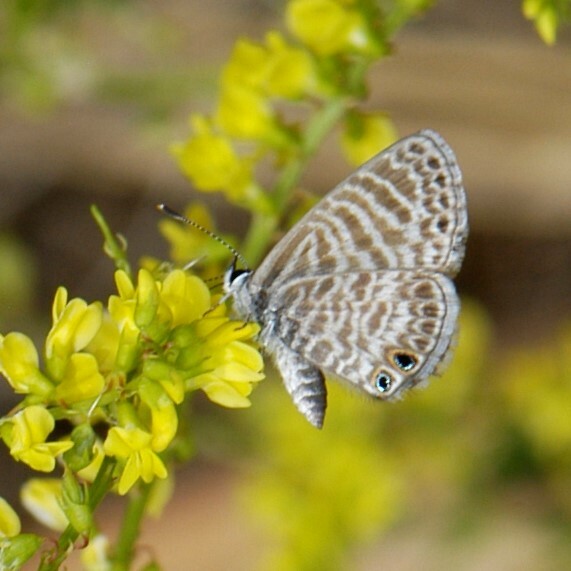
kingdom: Animalia
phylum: Arthropoda
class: Insecta
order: Lepidoptera
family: Lycaenidae
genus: Leptotes
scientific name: Leptotes marina
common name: Marine blue
